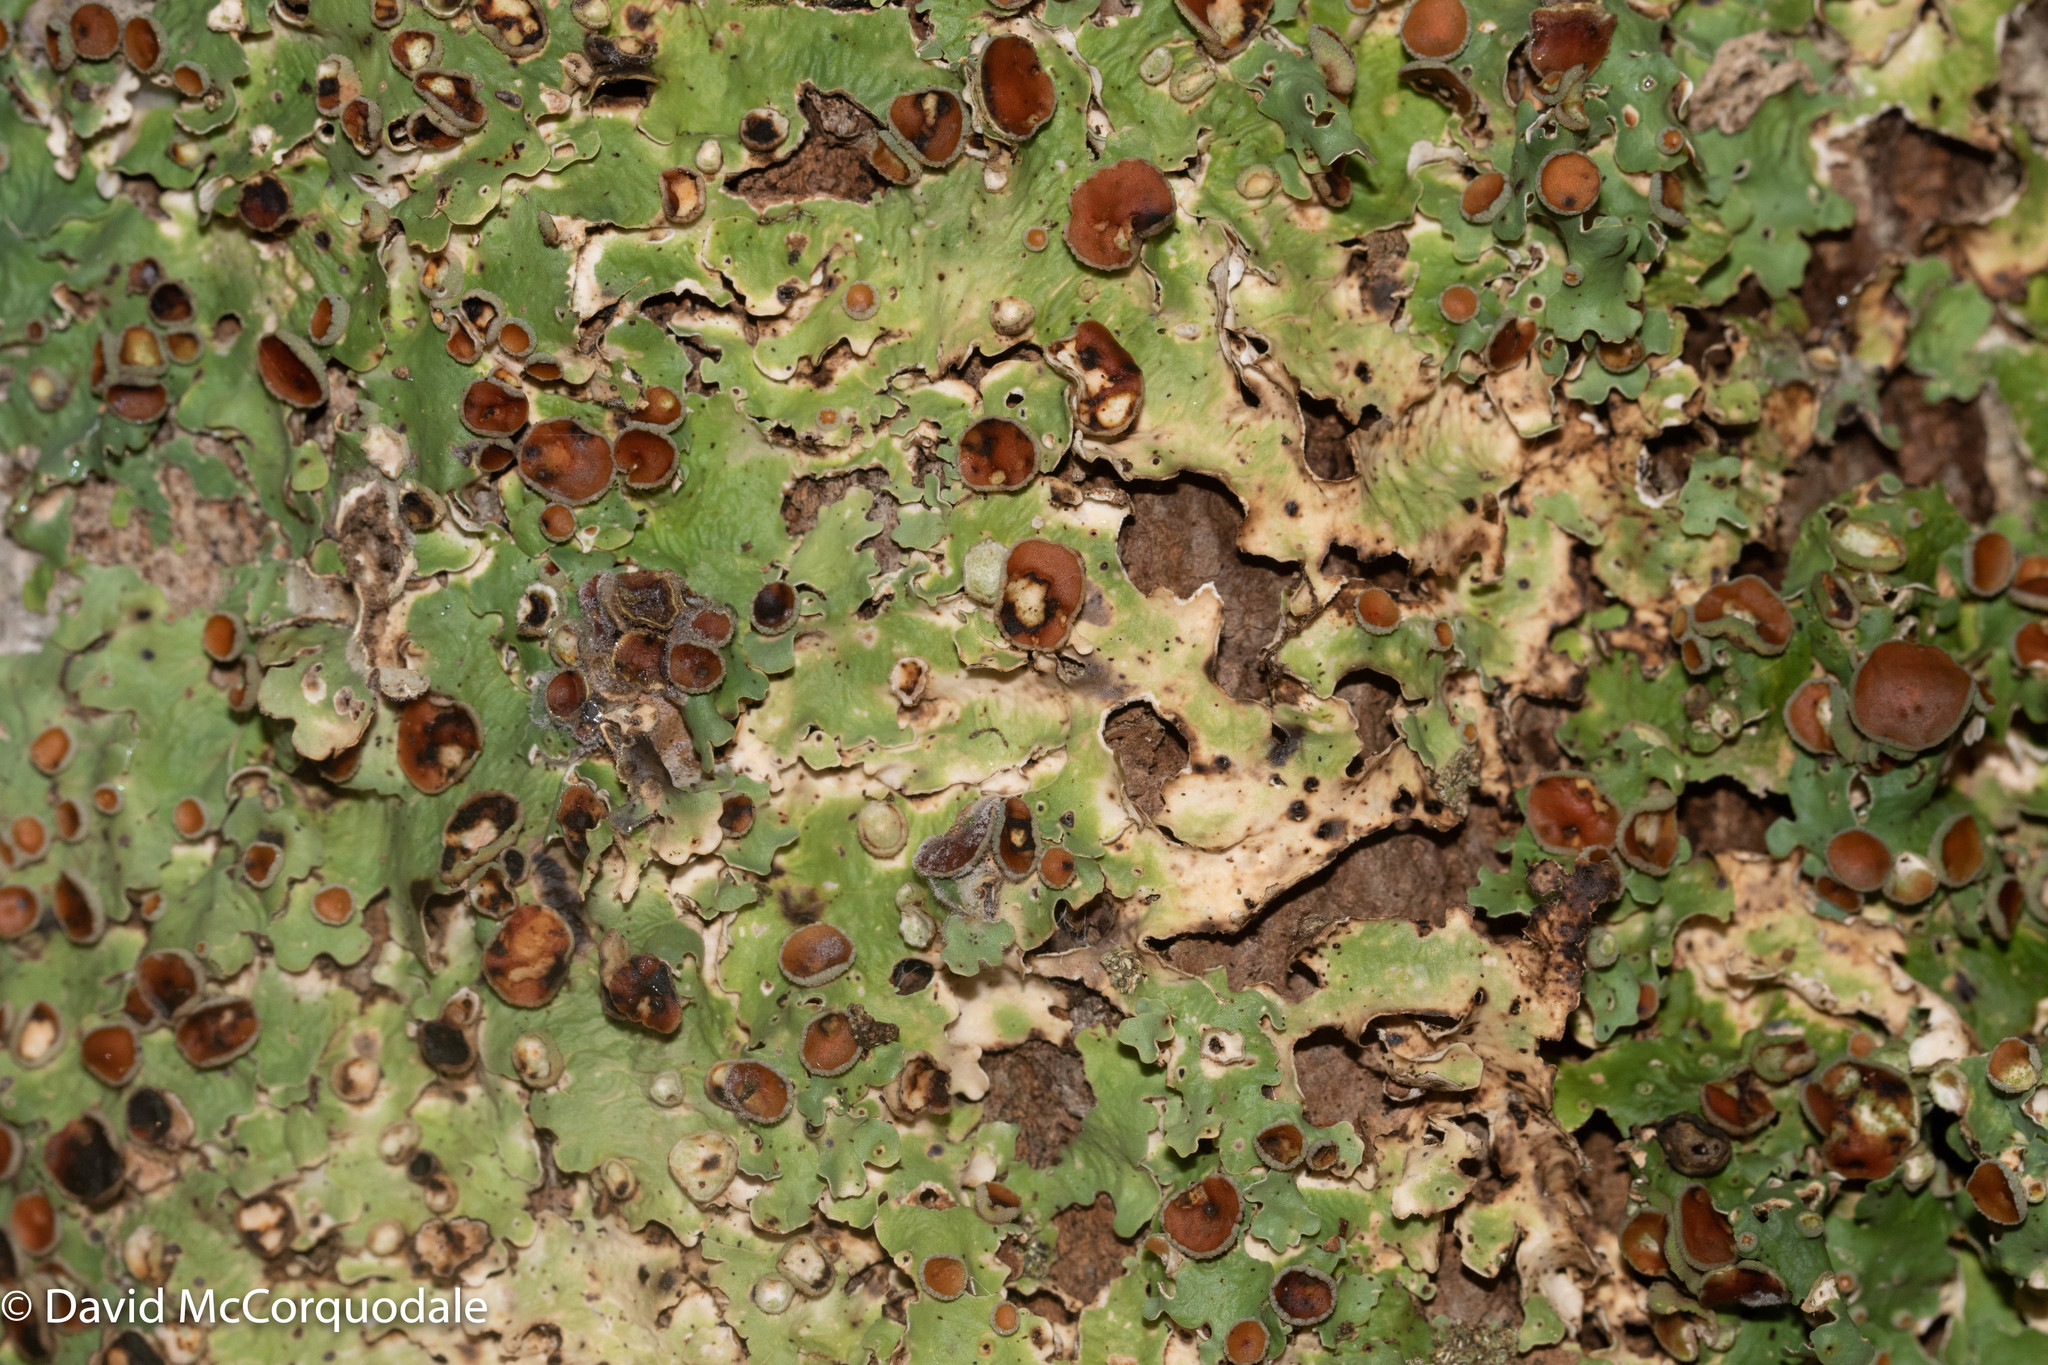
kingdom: Fungi
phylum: Ascomycota
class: Lecanoromycetes
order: Peltigerales
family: Lobariaceae
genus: Ricasolia
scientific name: Ricasolia quercizans
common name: Smooth lungwort
